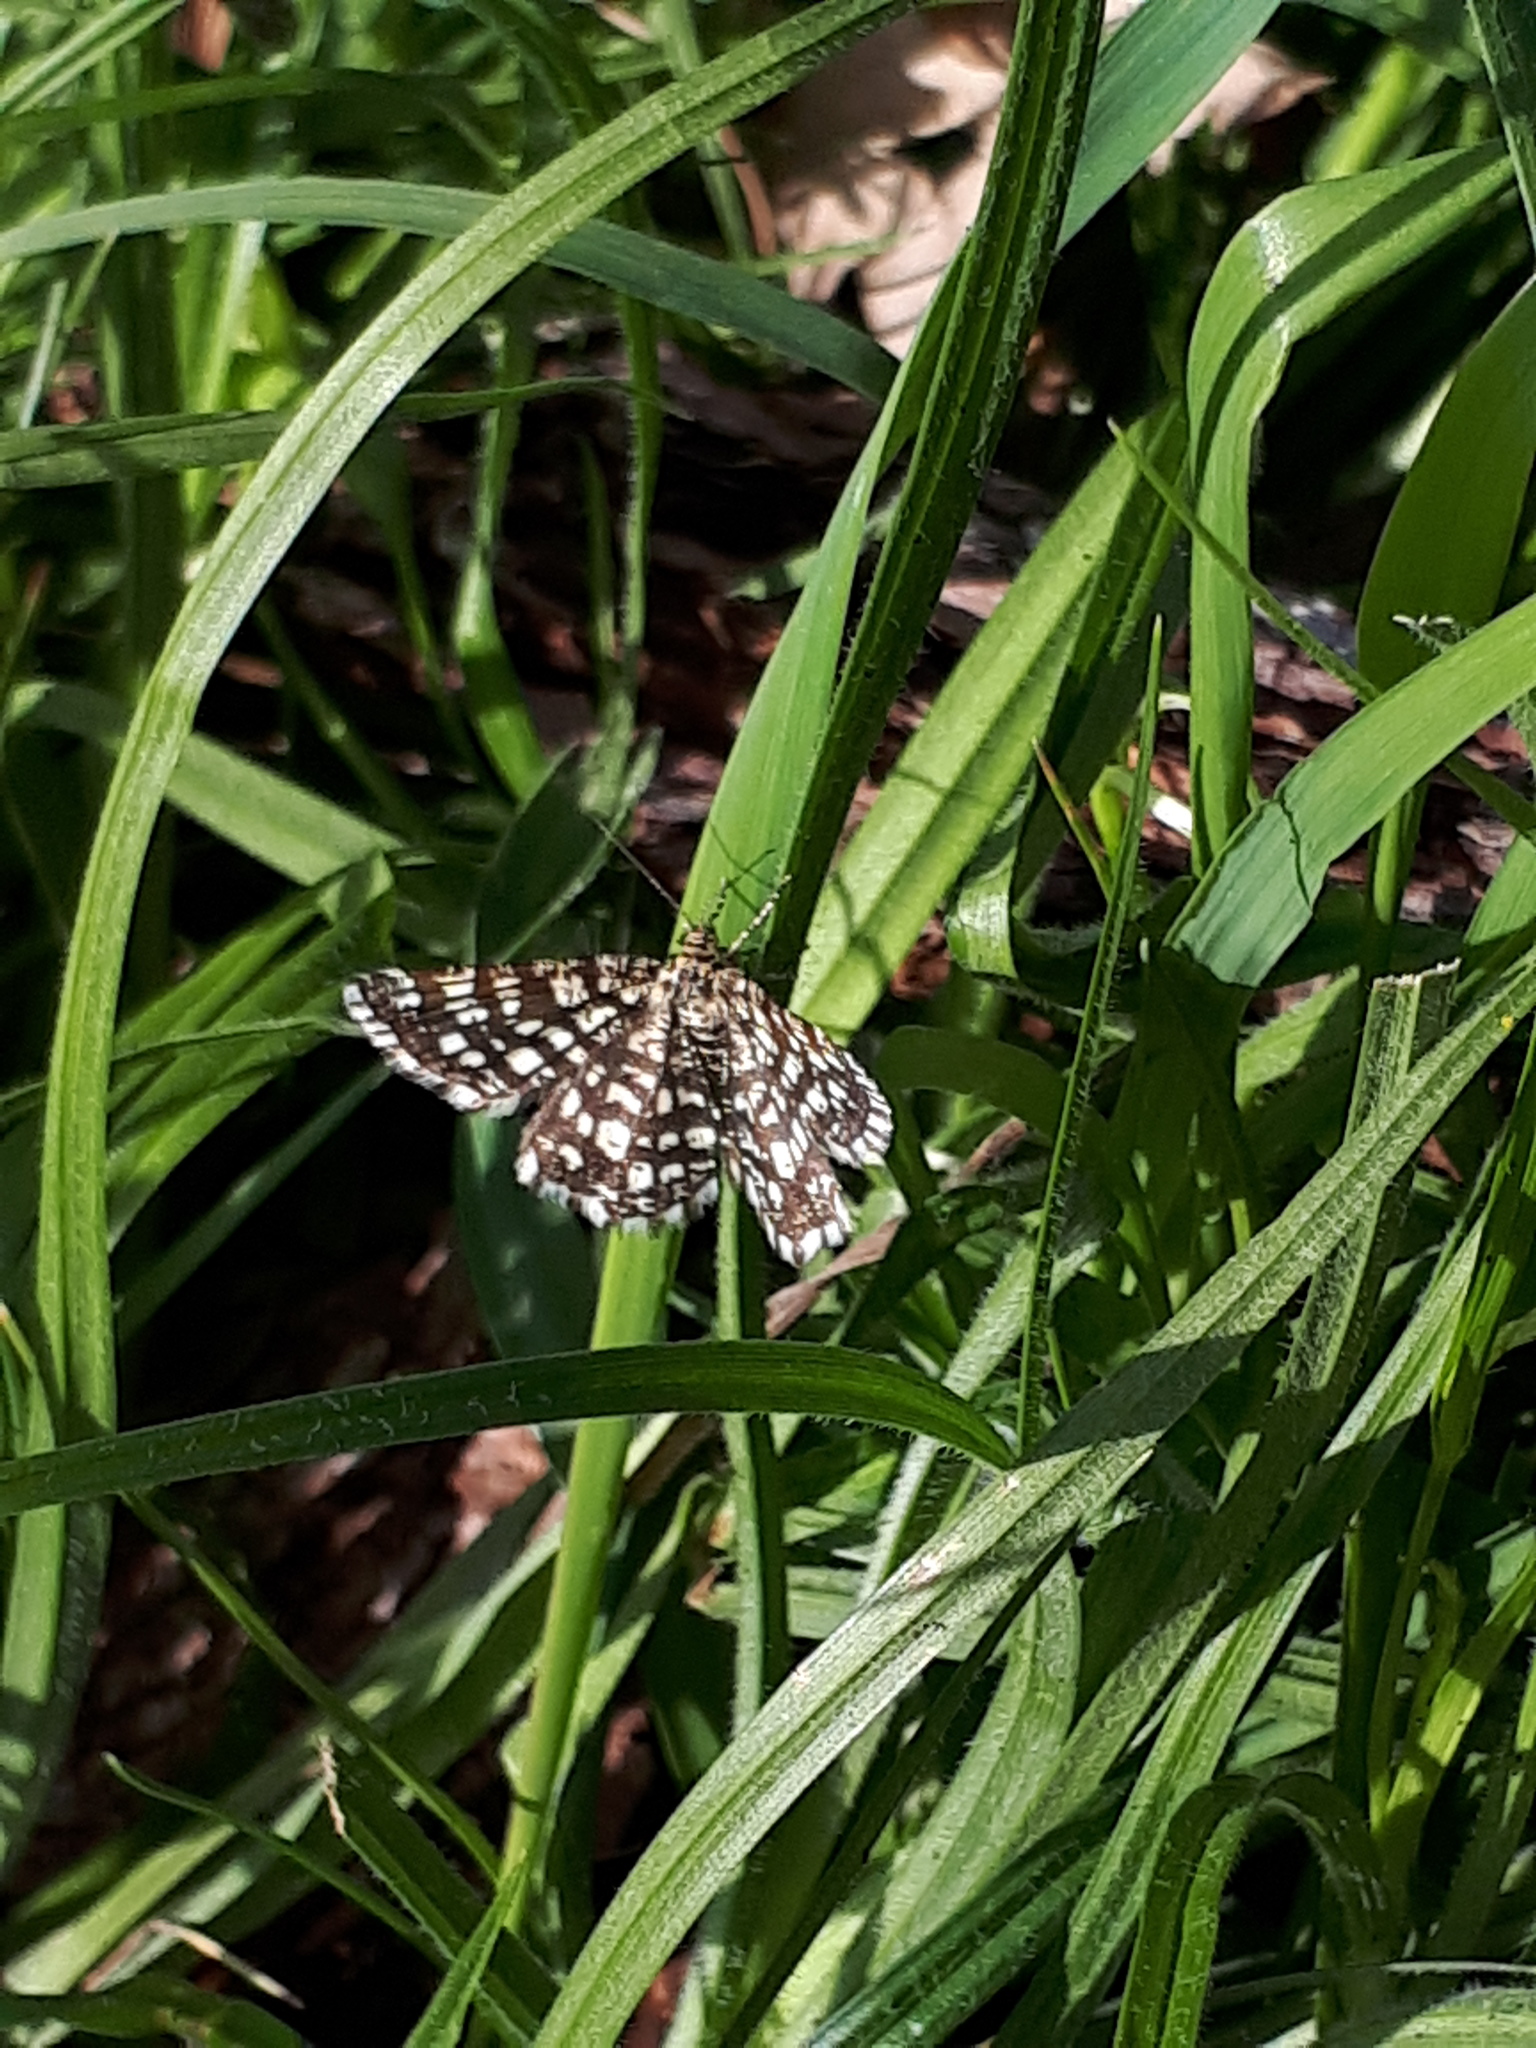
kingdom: Animalia
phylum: Arthropoda
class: Insecta
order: Lepidoptera
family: Geometridae
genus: Chiasmia
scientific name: Chiasmia clathrata
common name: Latticed heath
